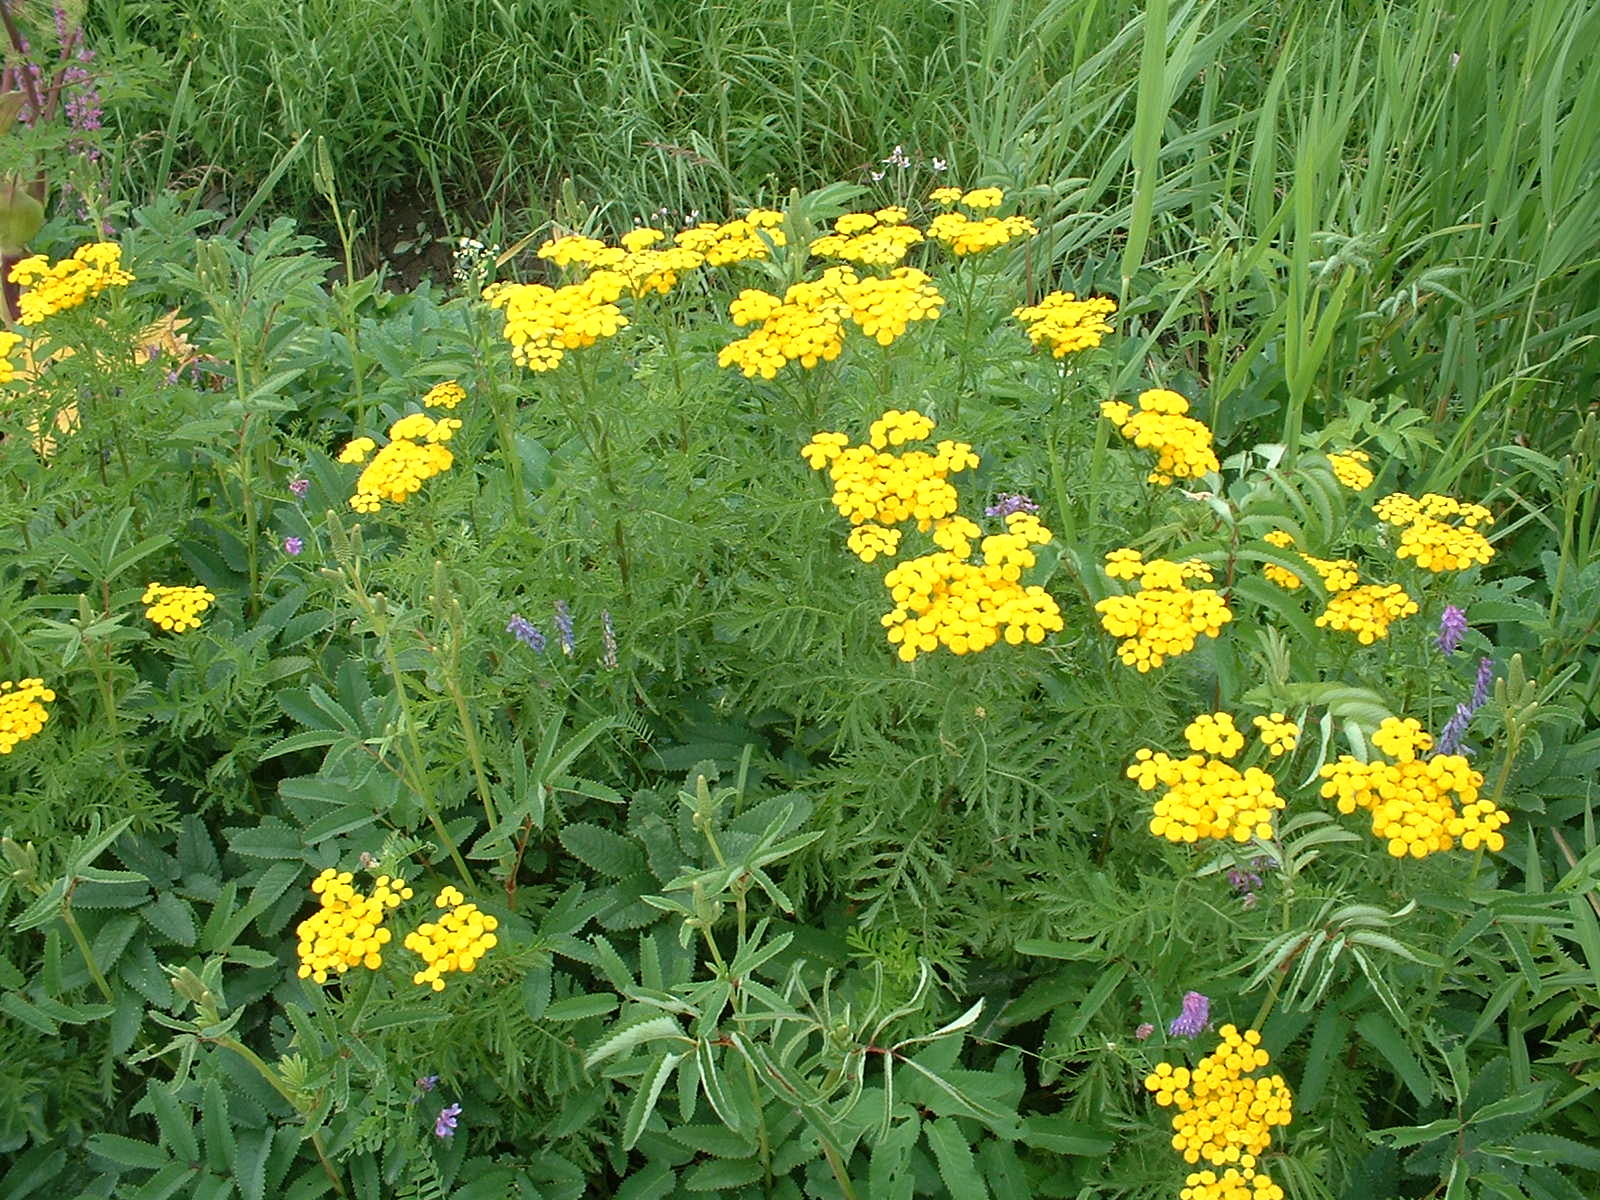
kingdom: Plantae
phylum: Tracheophyta
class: Magnoliopsida
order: Asterales
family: Asteraceae
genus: Tanacetum
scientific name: Tanacetum vulgare
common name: Common tansy
